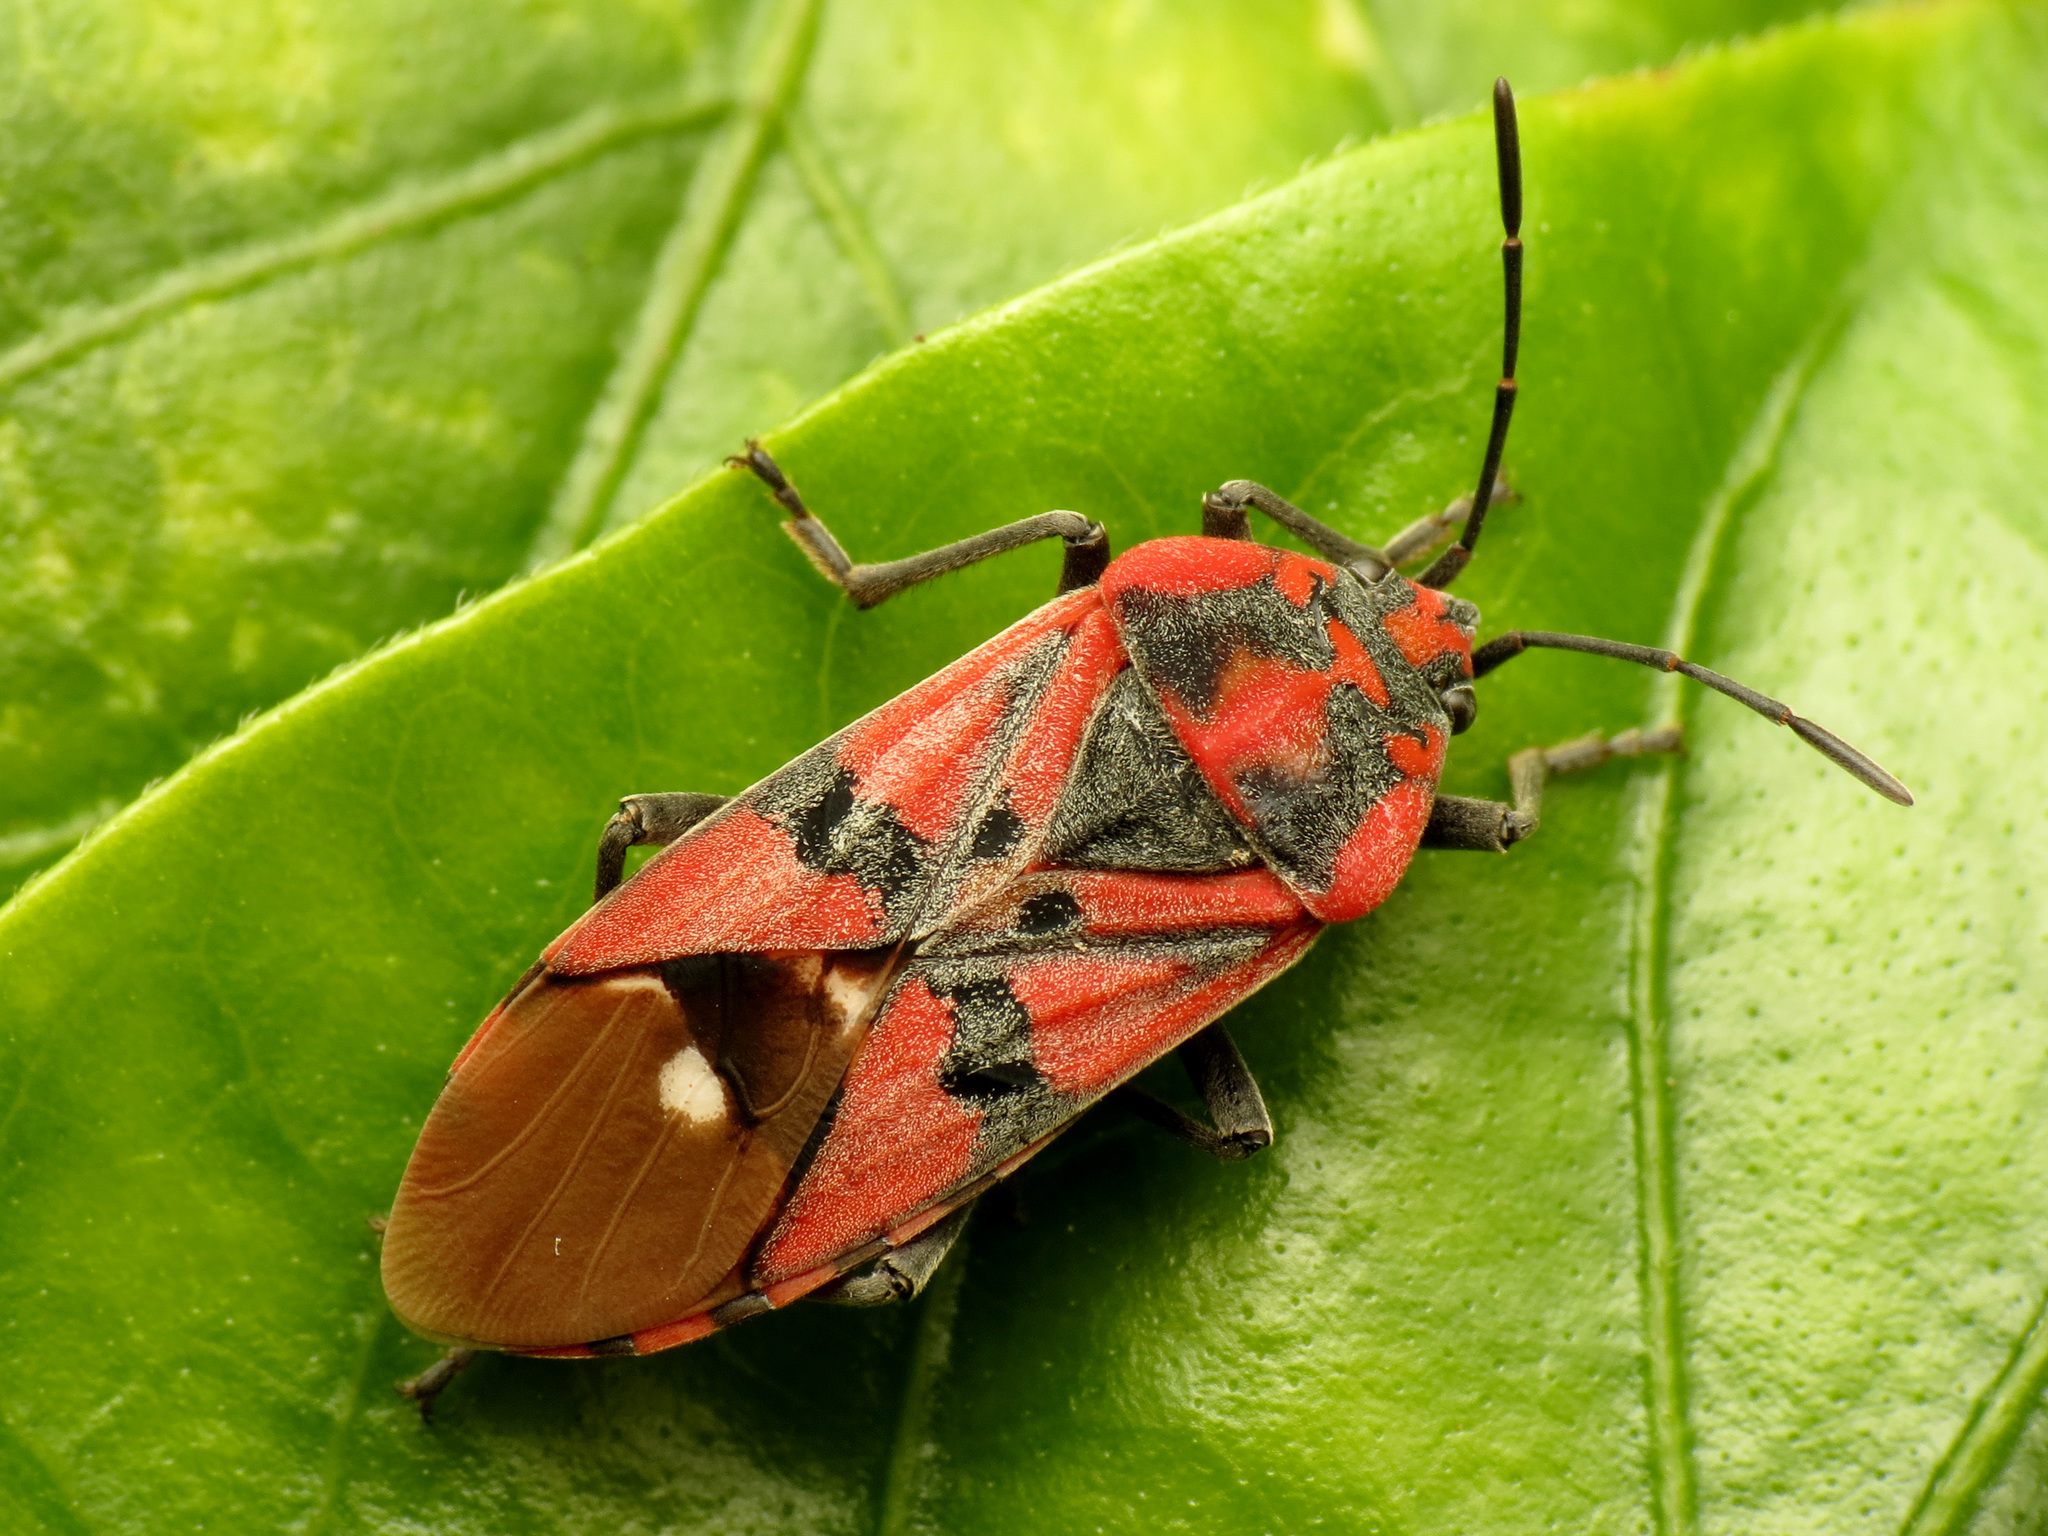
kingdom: Animalia
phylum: Arthropoda
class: Insecta
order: Hemiptera
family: Lygaeidae
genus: Spilostethus
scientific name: Spilostethus pandurus
